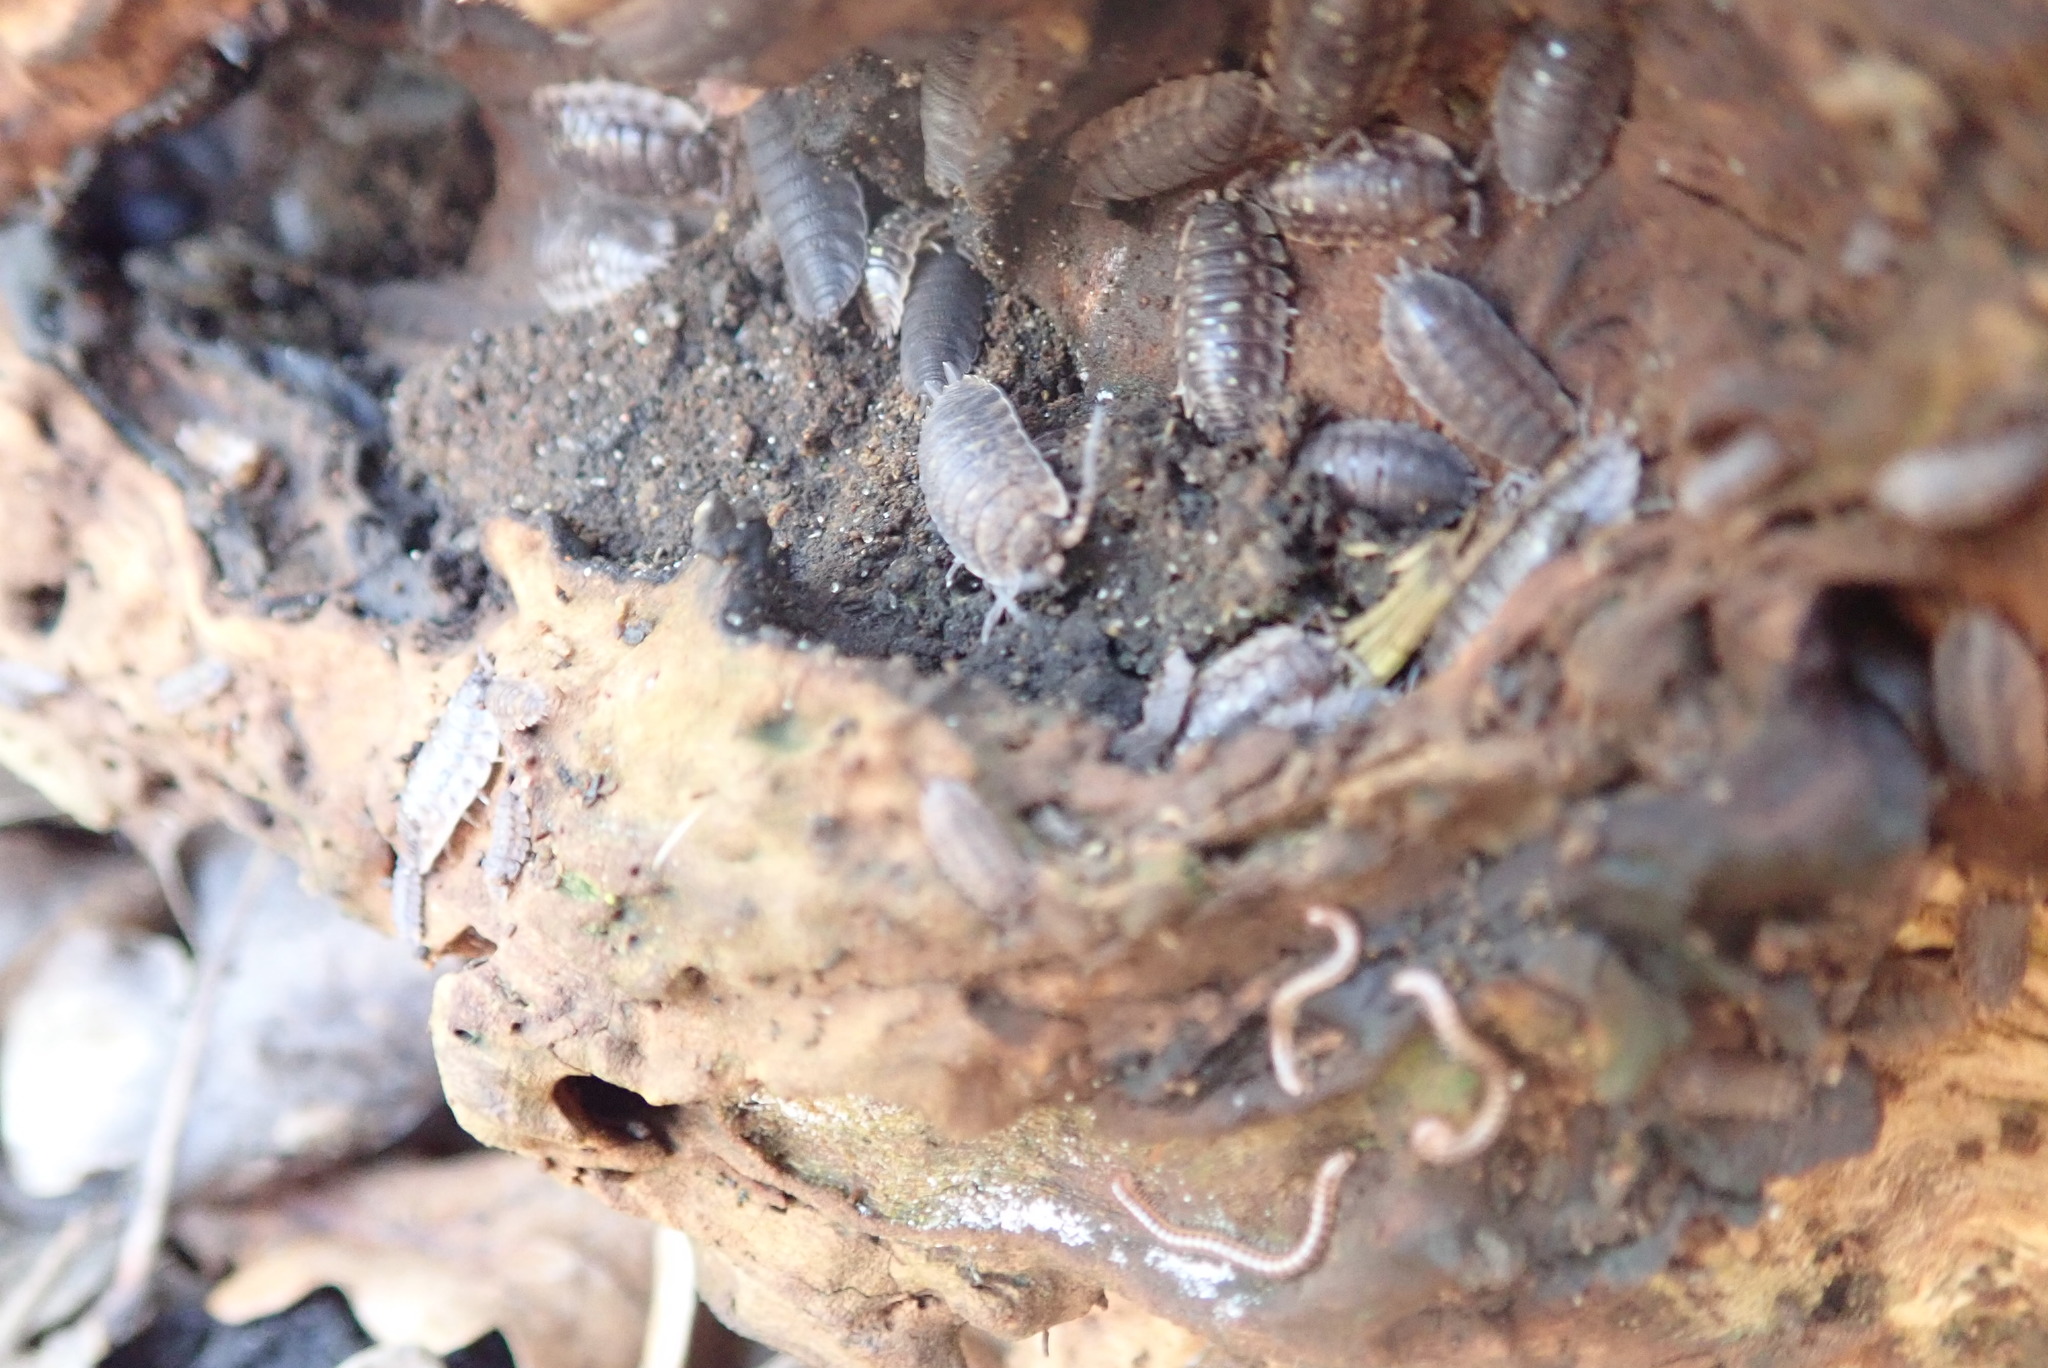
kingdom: Animalia
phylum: Arthropoda
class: Malacostraca
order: Isopoda
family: Porcellionidae
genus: Porcellio
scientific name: Porcellio scaber
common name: Common rough woodlouse
